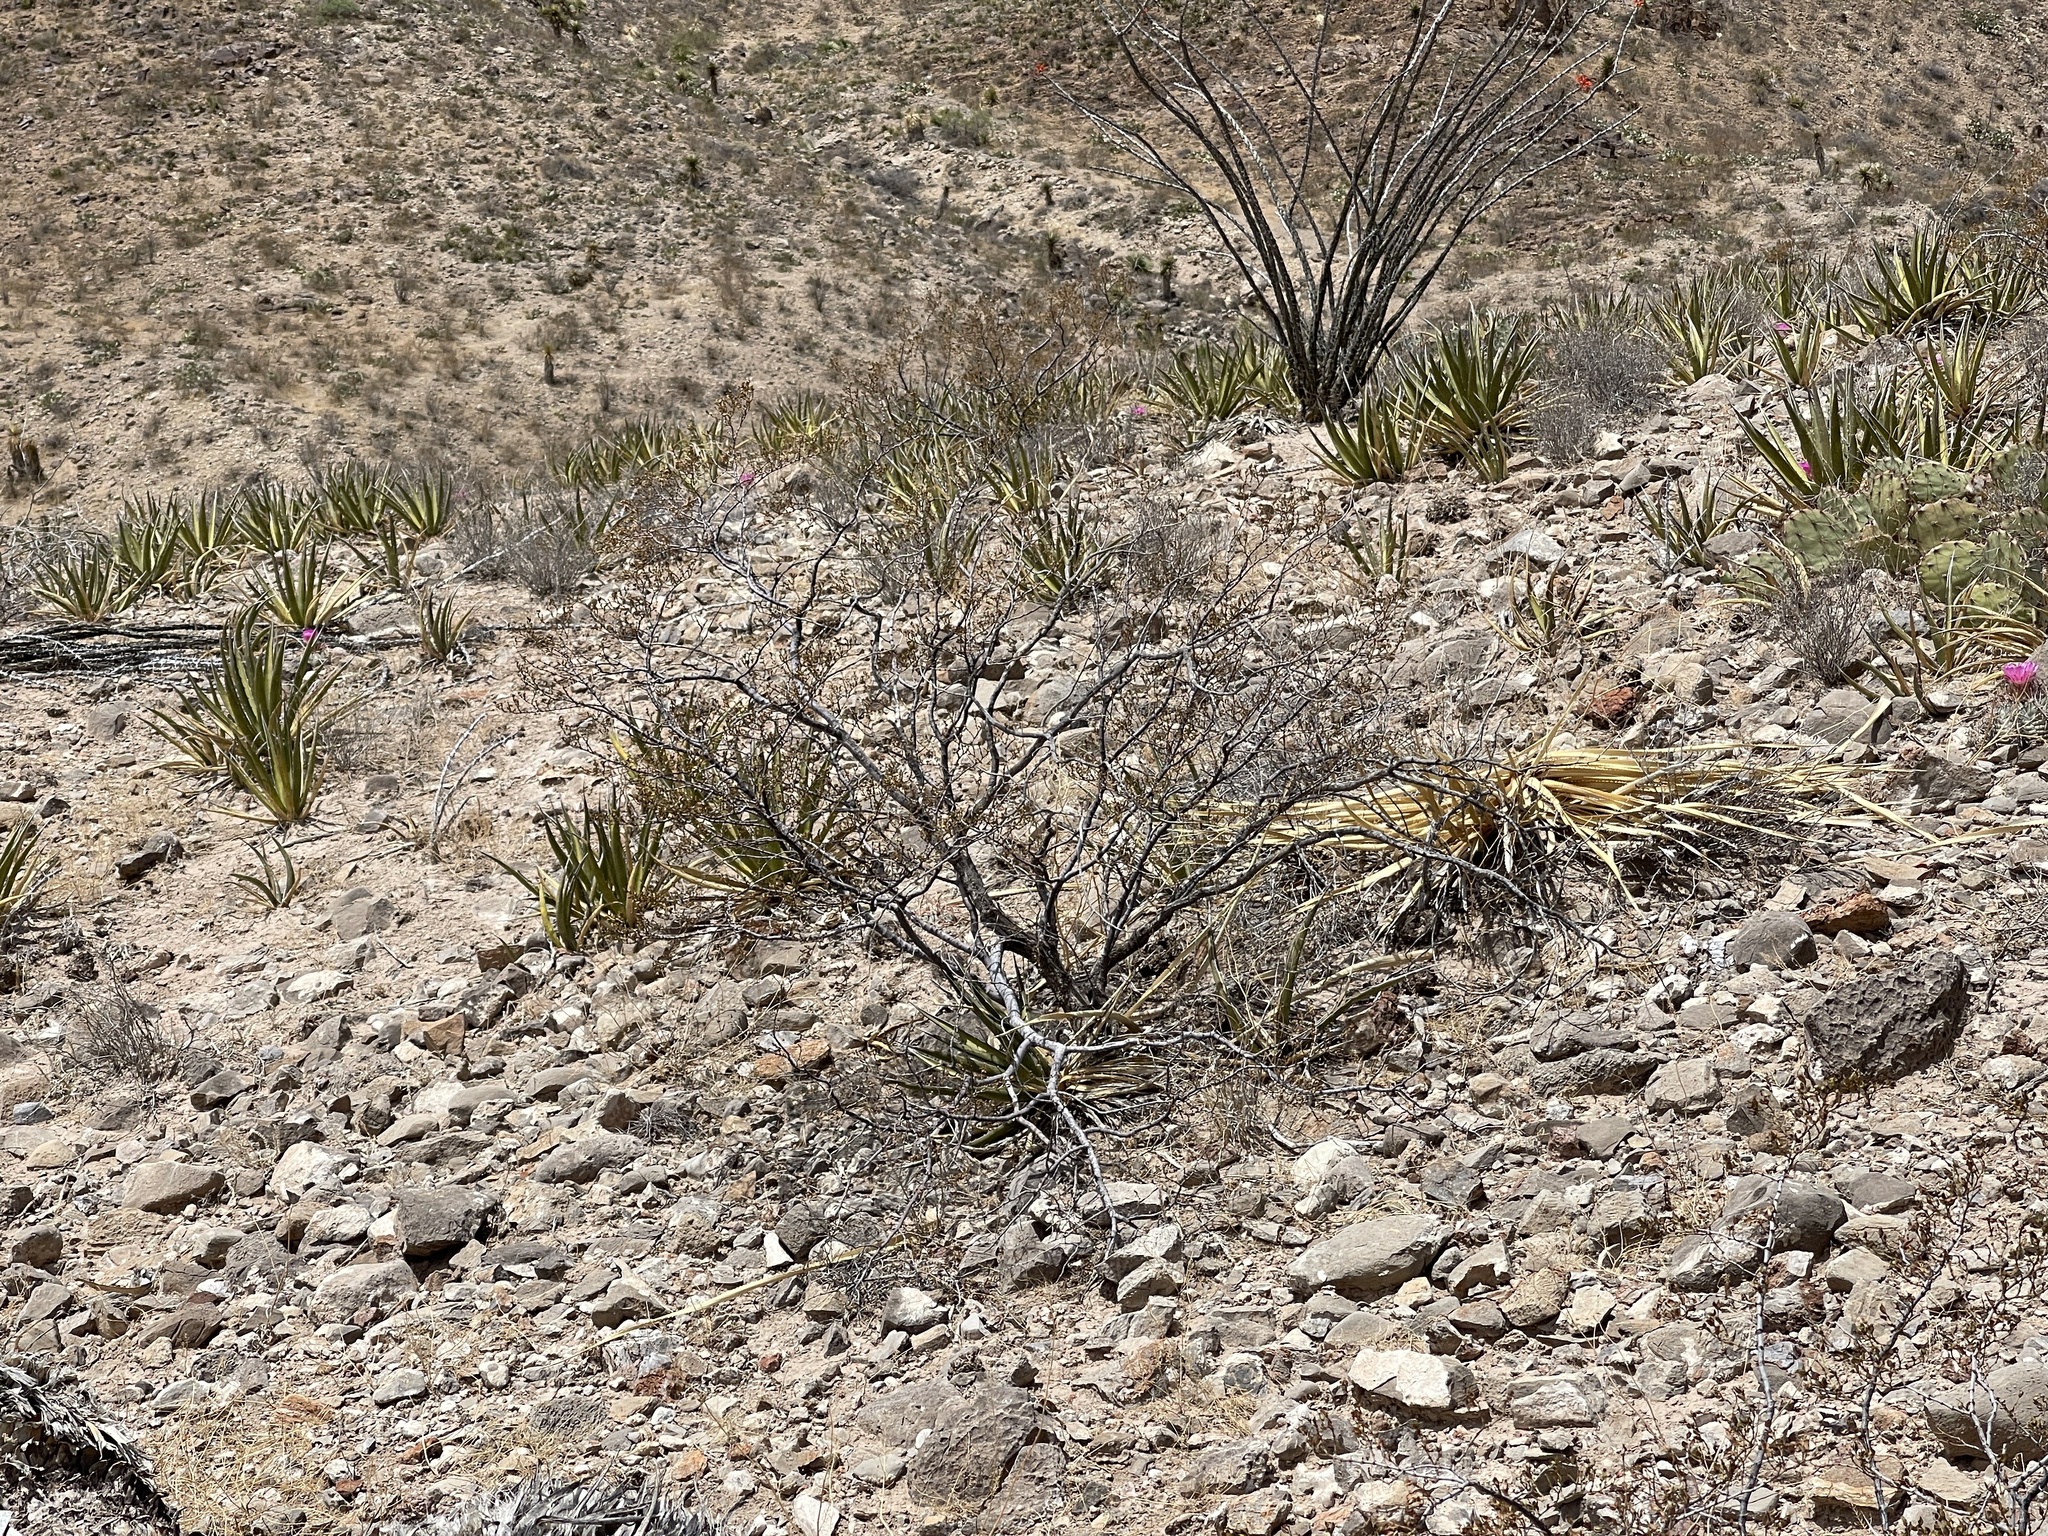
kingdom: Plantae
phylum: Tracheophyta
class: Magnoliopsida
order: Zygophyllales
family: Zygophyllaceae
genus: Larrea
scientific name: Larrea tridentata
